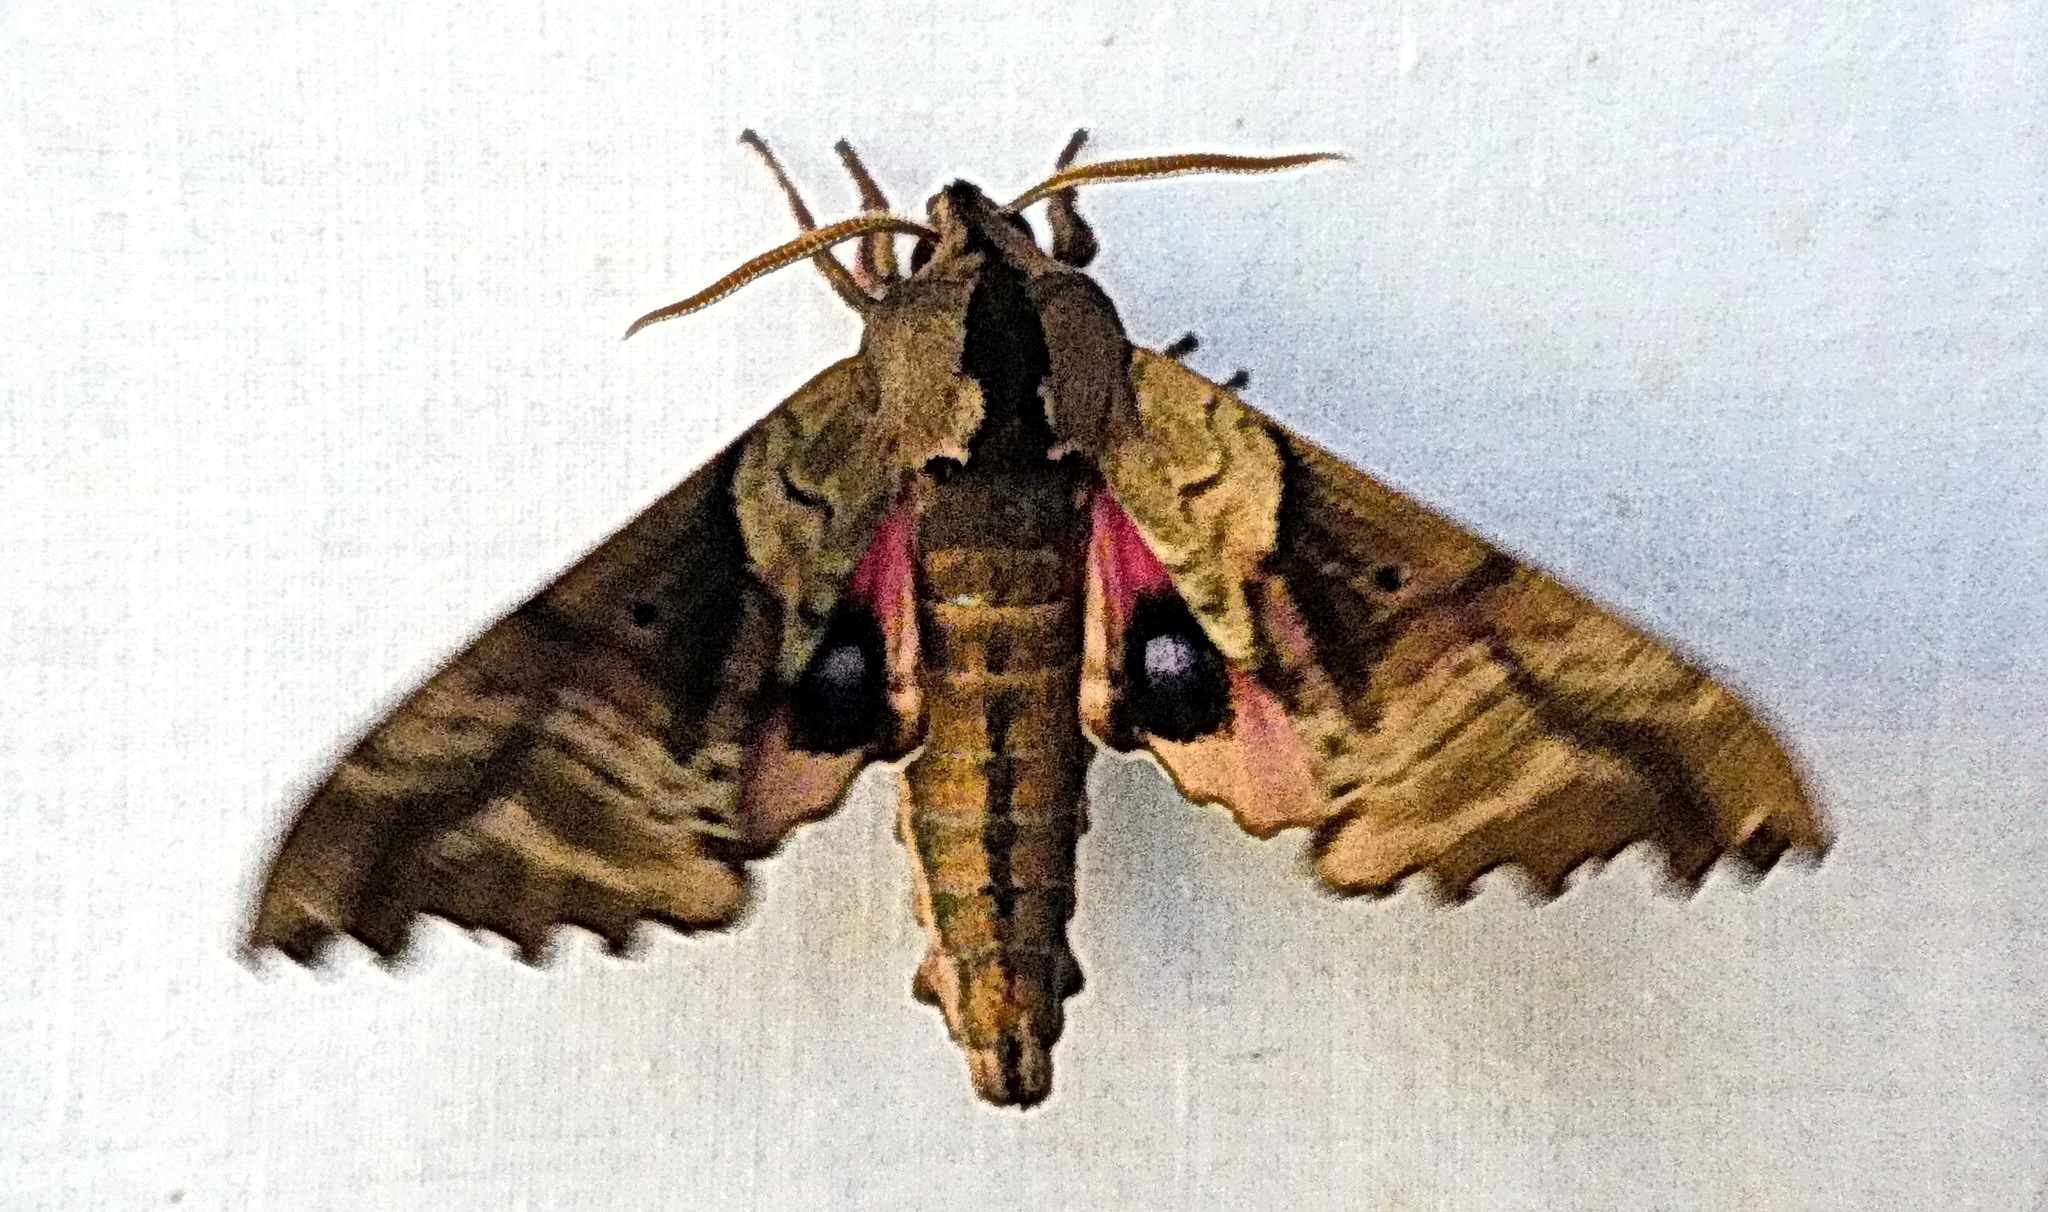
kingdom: Animalia
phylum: Arthropoda
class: Insecta
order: Lepidoptera
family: Sphingidae
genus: Paonias
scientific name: Paonias excaecata
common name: Blind-eyed sphinx
